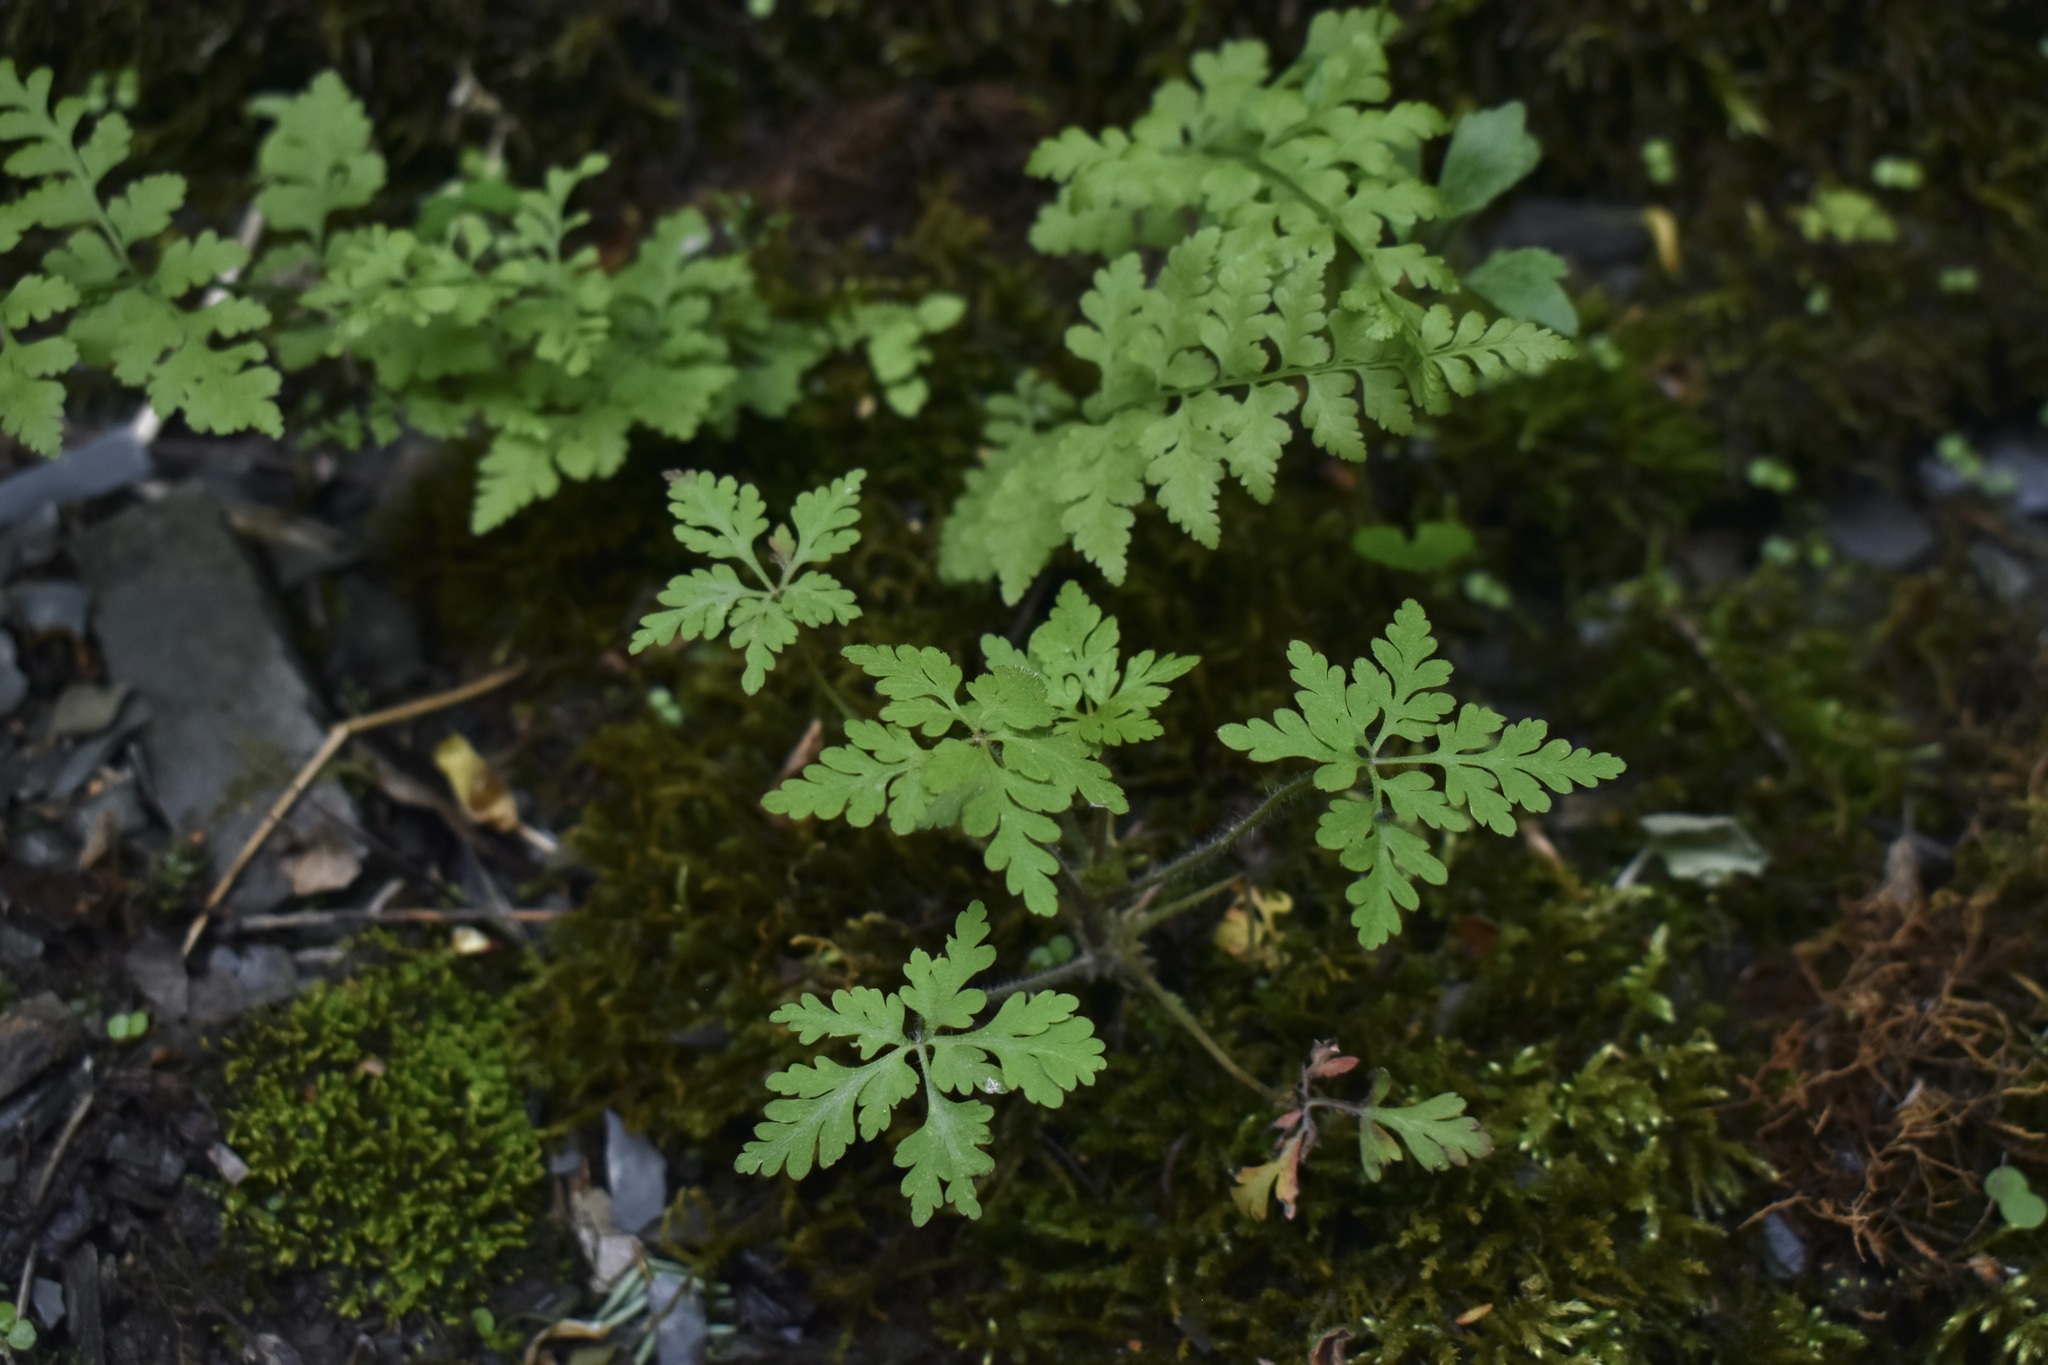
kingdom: Plantae
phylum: Tracheophyta
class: Magnoliopsida
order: Geraniales
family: Geraniaceae
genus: Geranium
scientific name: Geranium robertianum
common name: Herb-robert
